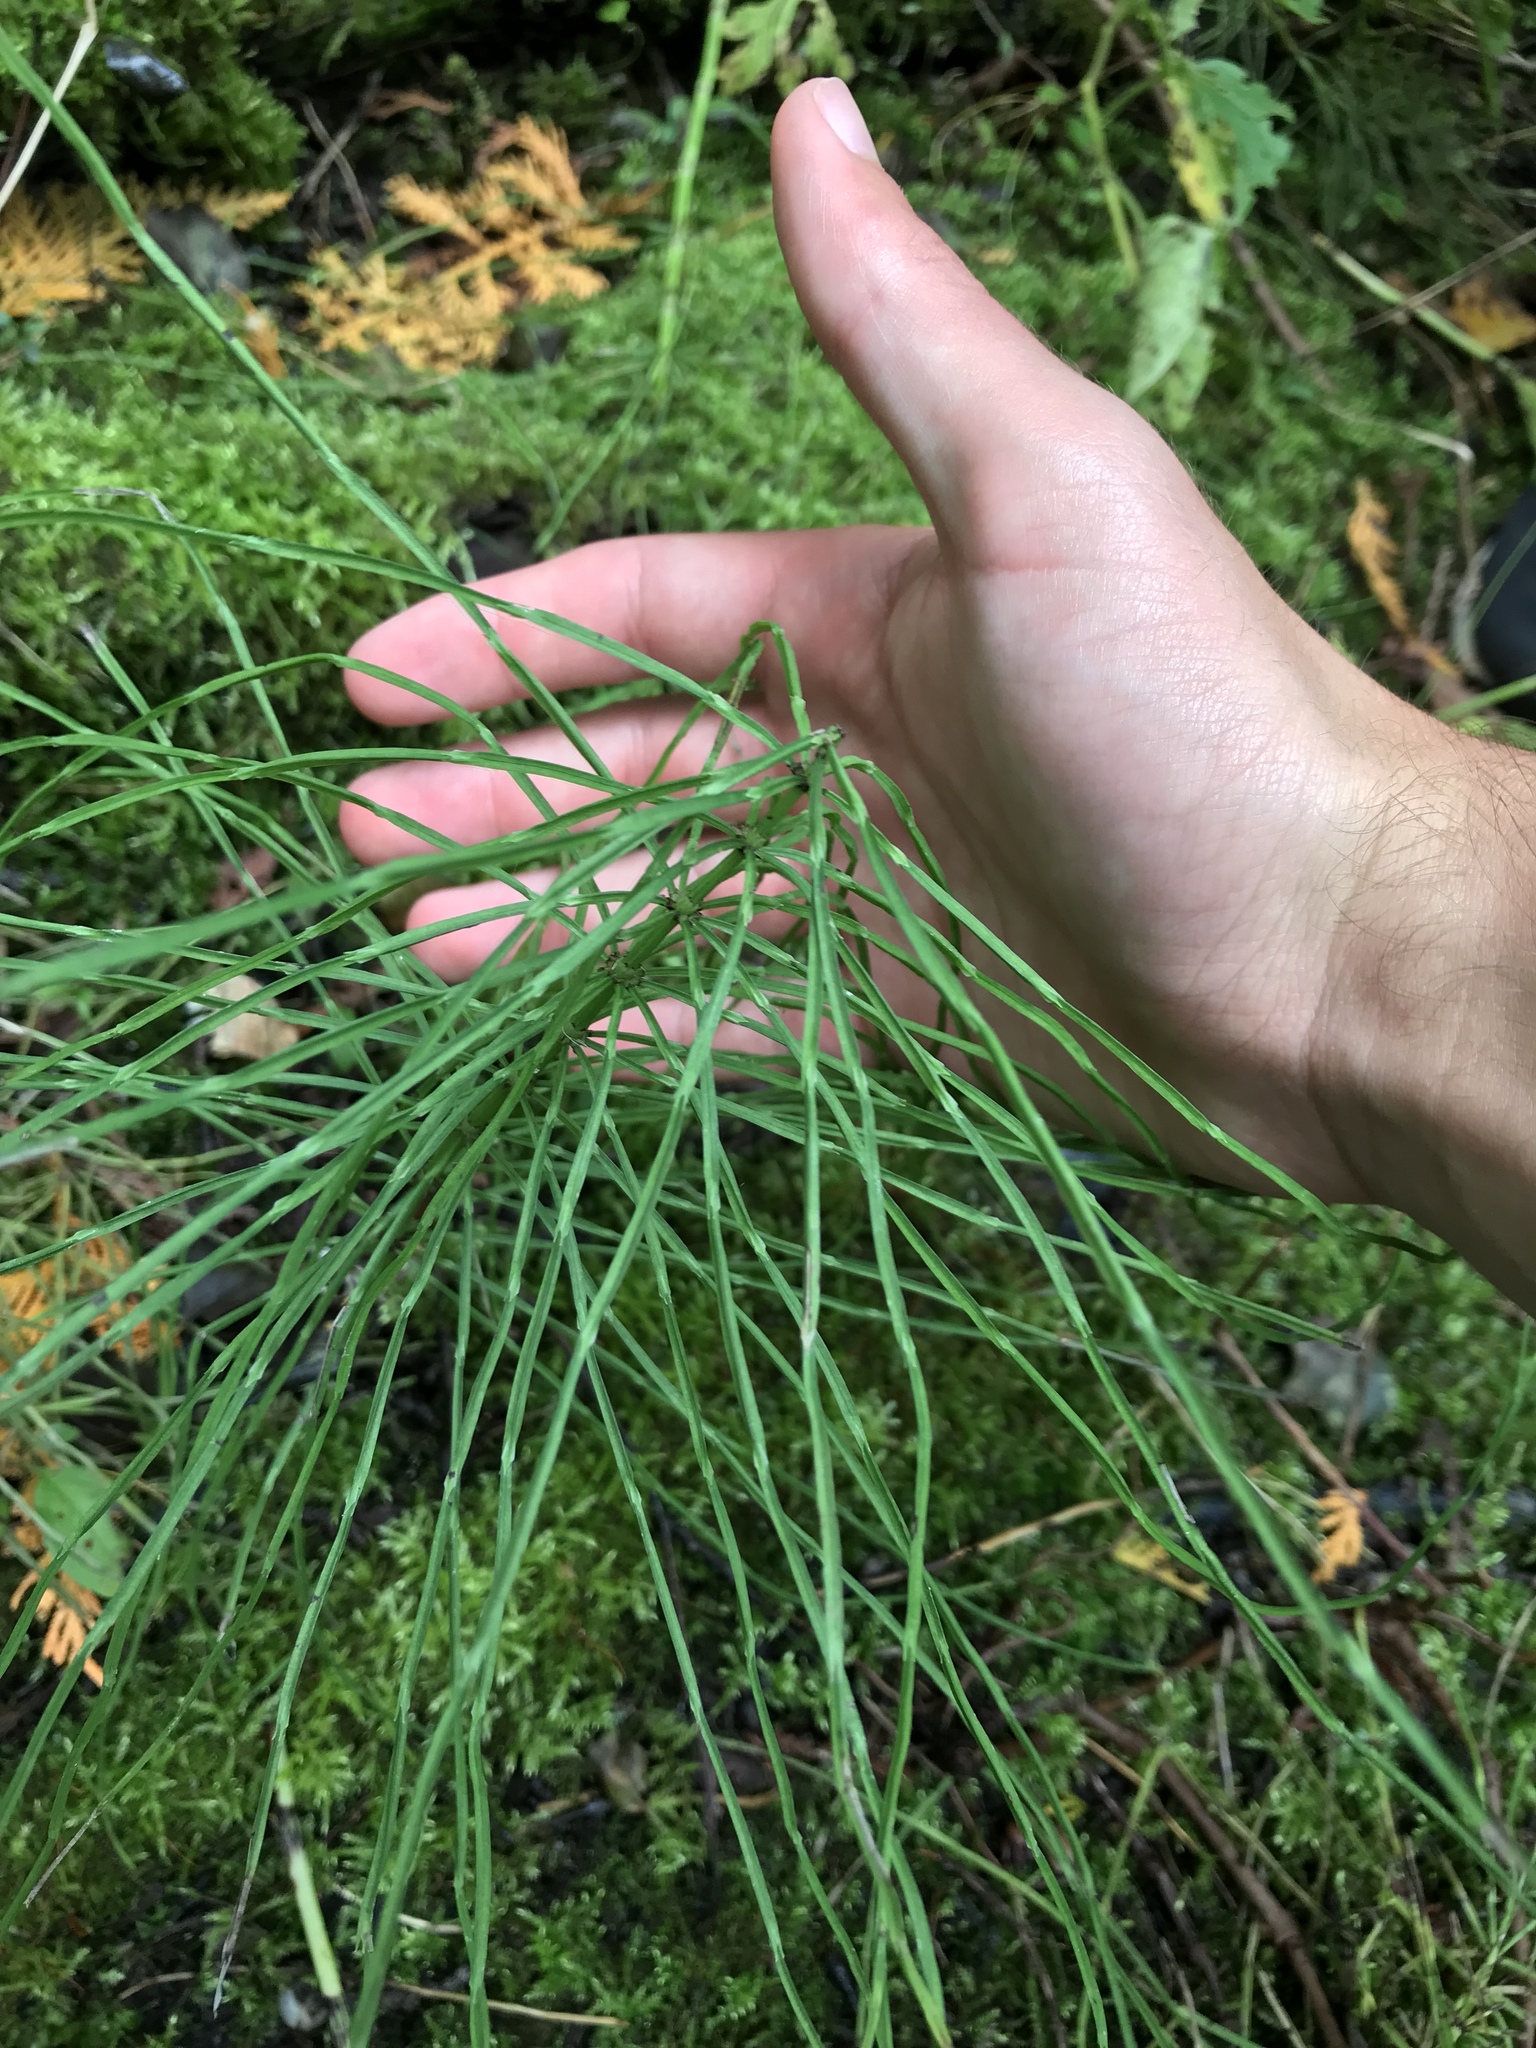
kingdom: Plantae
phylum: Tracheophyta
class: Polypodiopsida
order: Equisetales
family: Equisetaceae
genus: Equisetum
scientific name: Equisetum arvense
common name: Field horsetail
